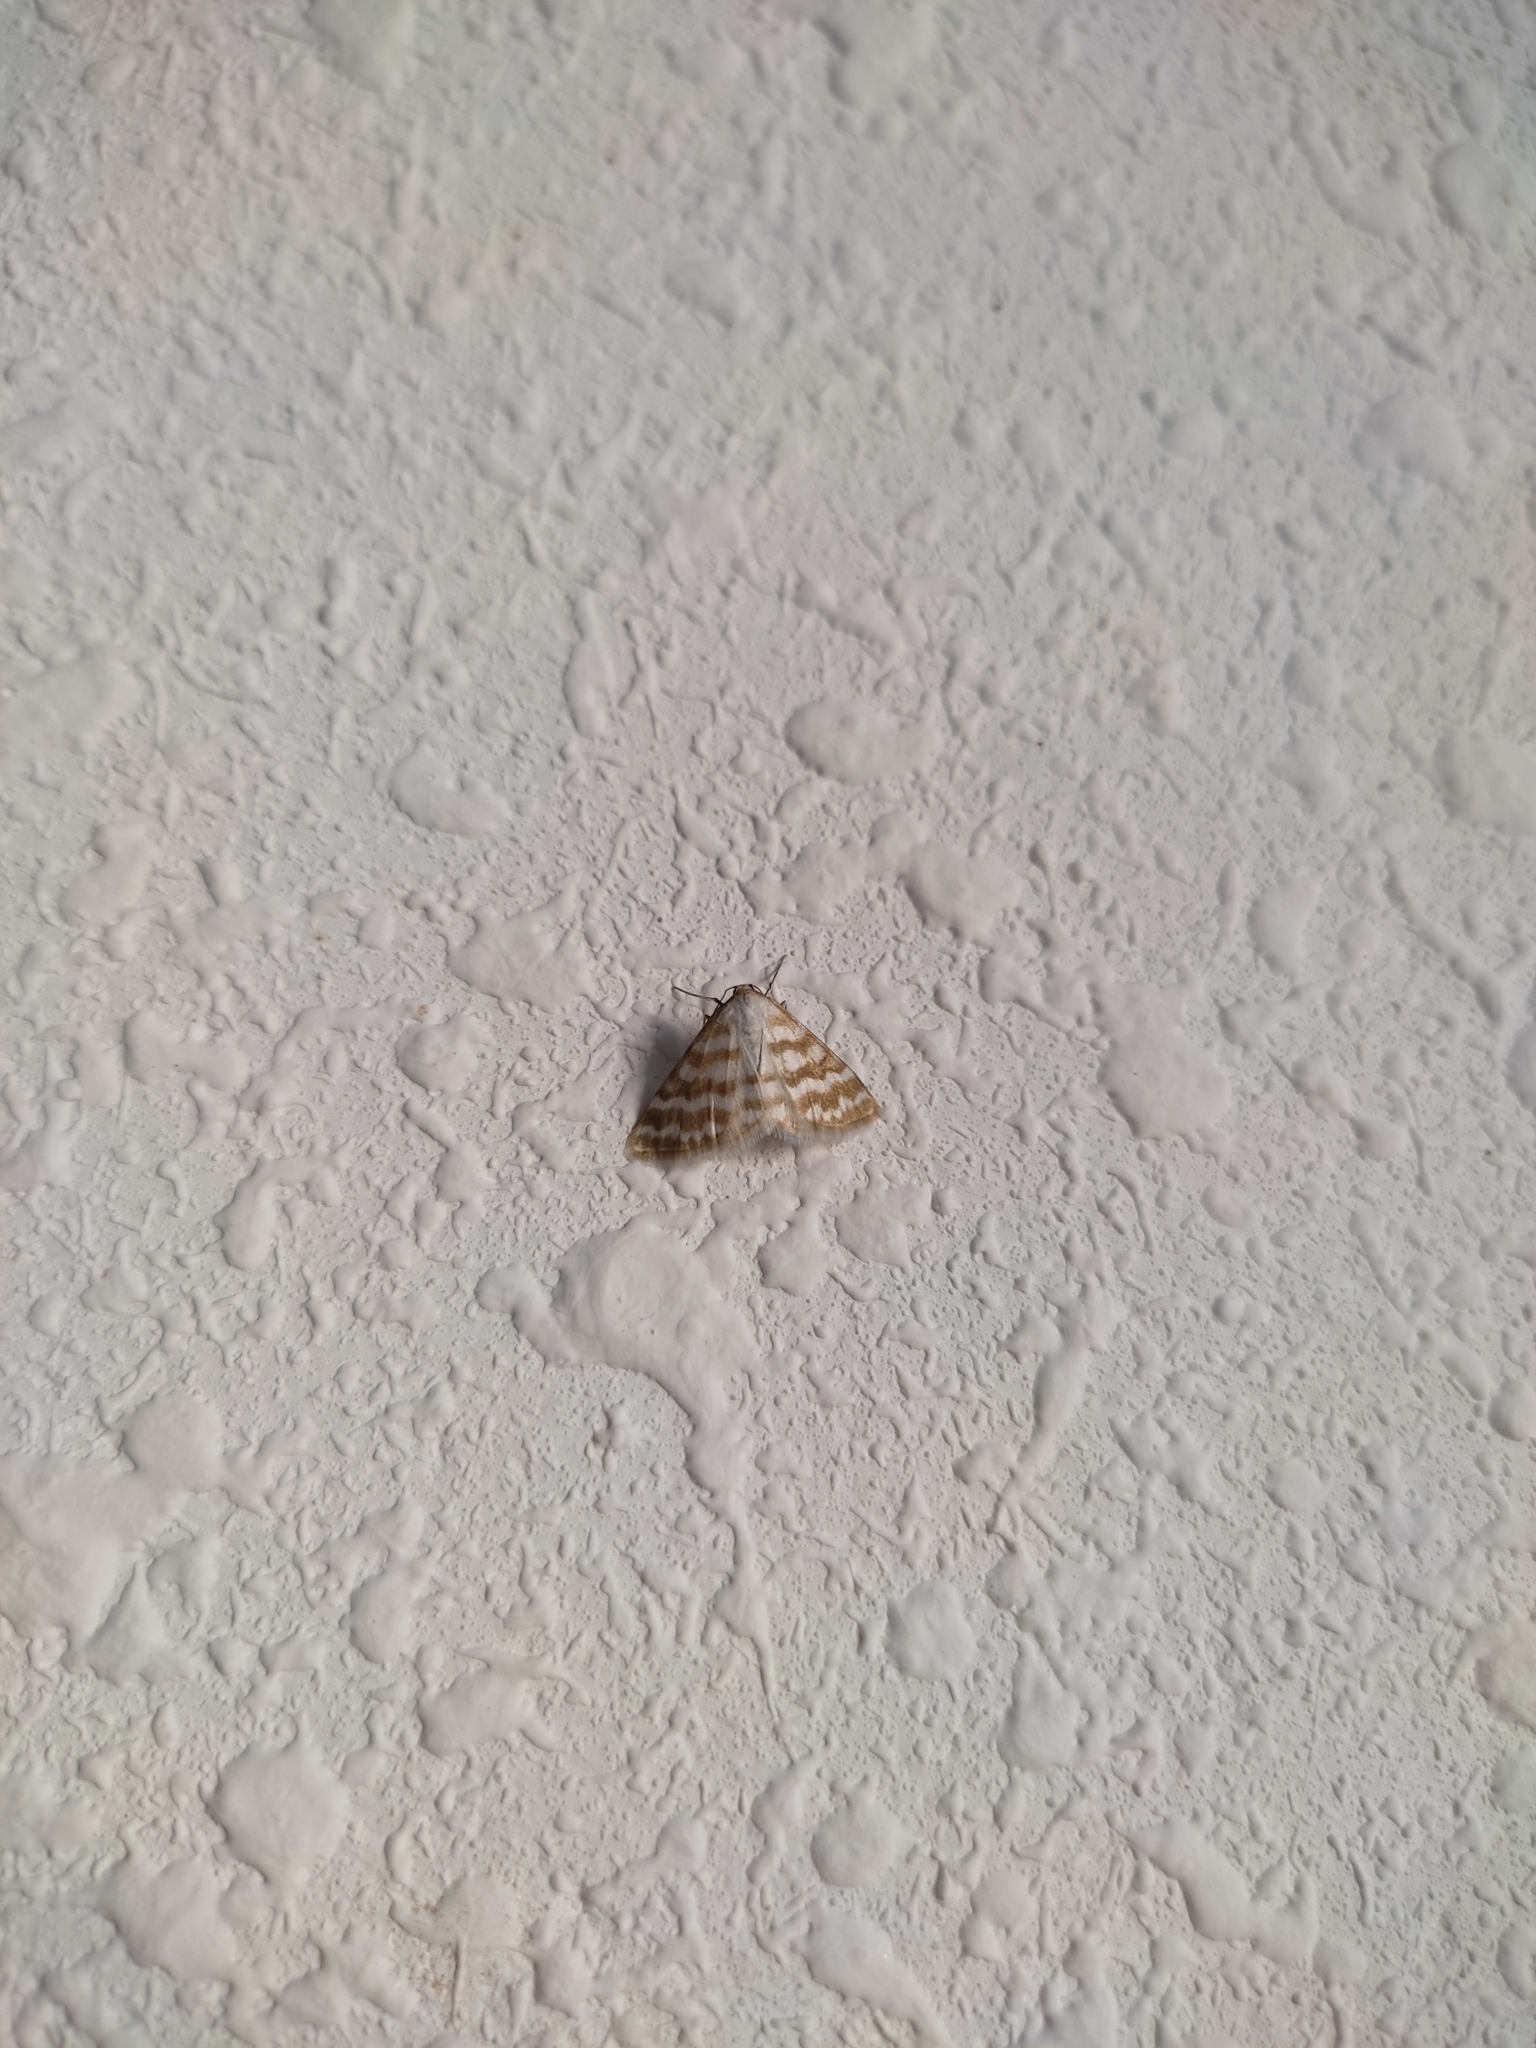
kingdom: Animalia
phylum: Arthropoda
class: Insecta
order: Lepidoptera
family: Geometridae
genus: Idaea
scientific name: Idaea sericeata
